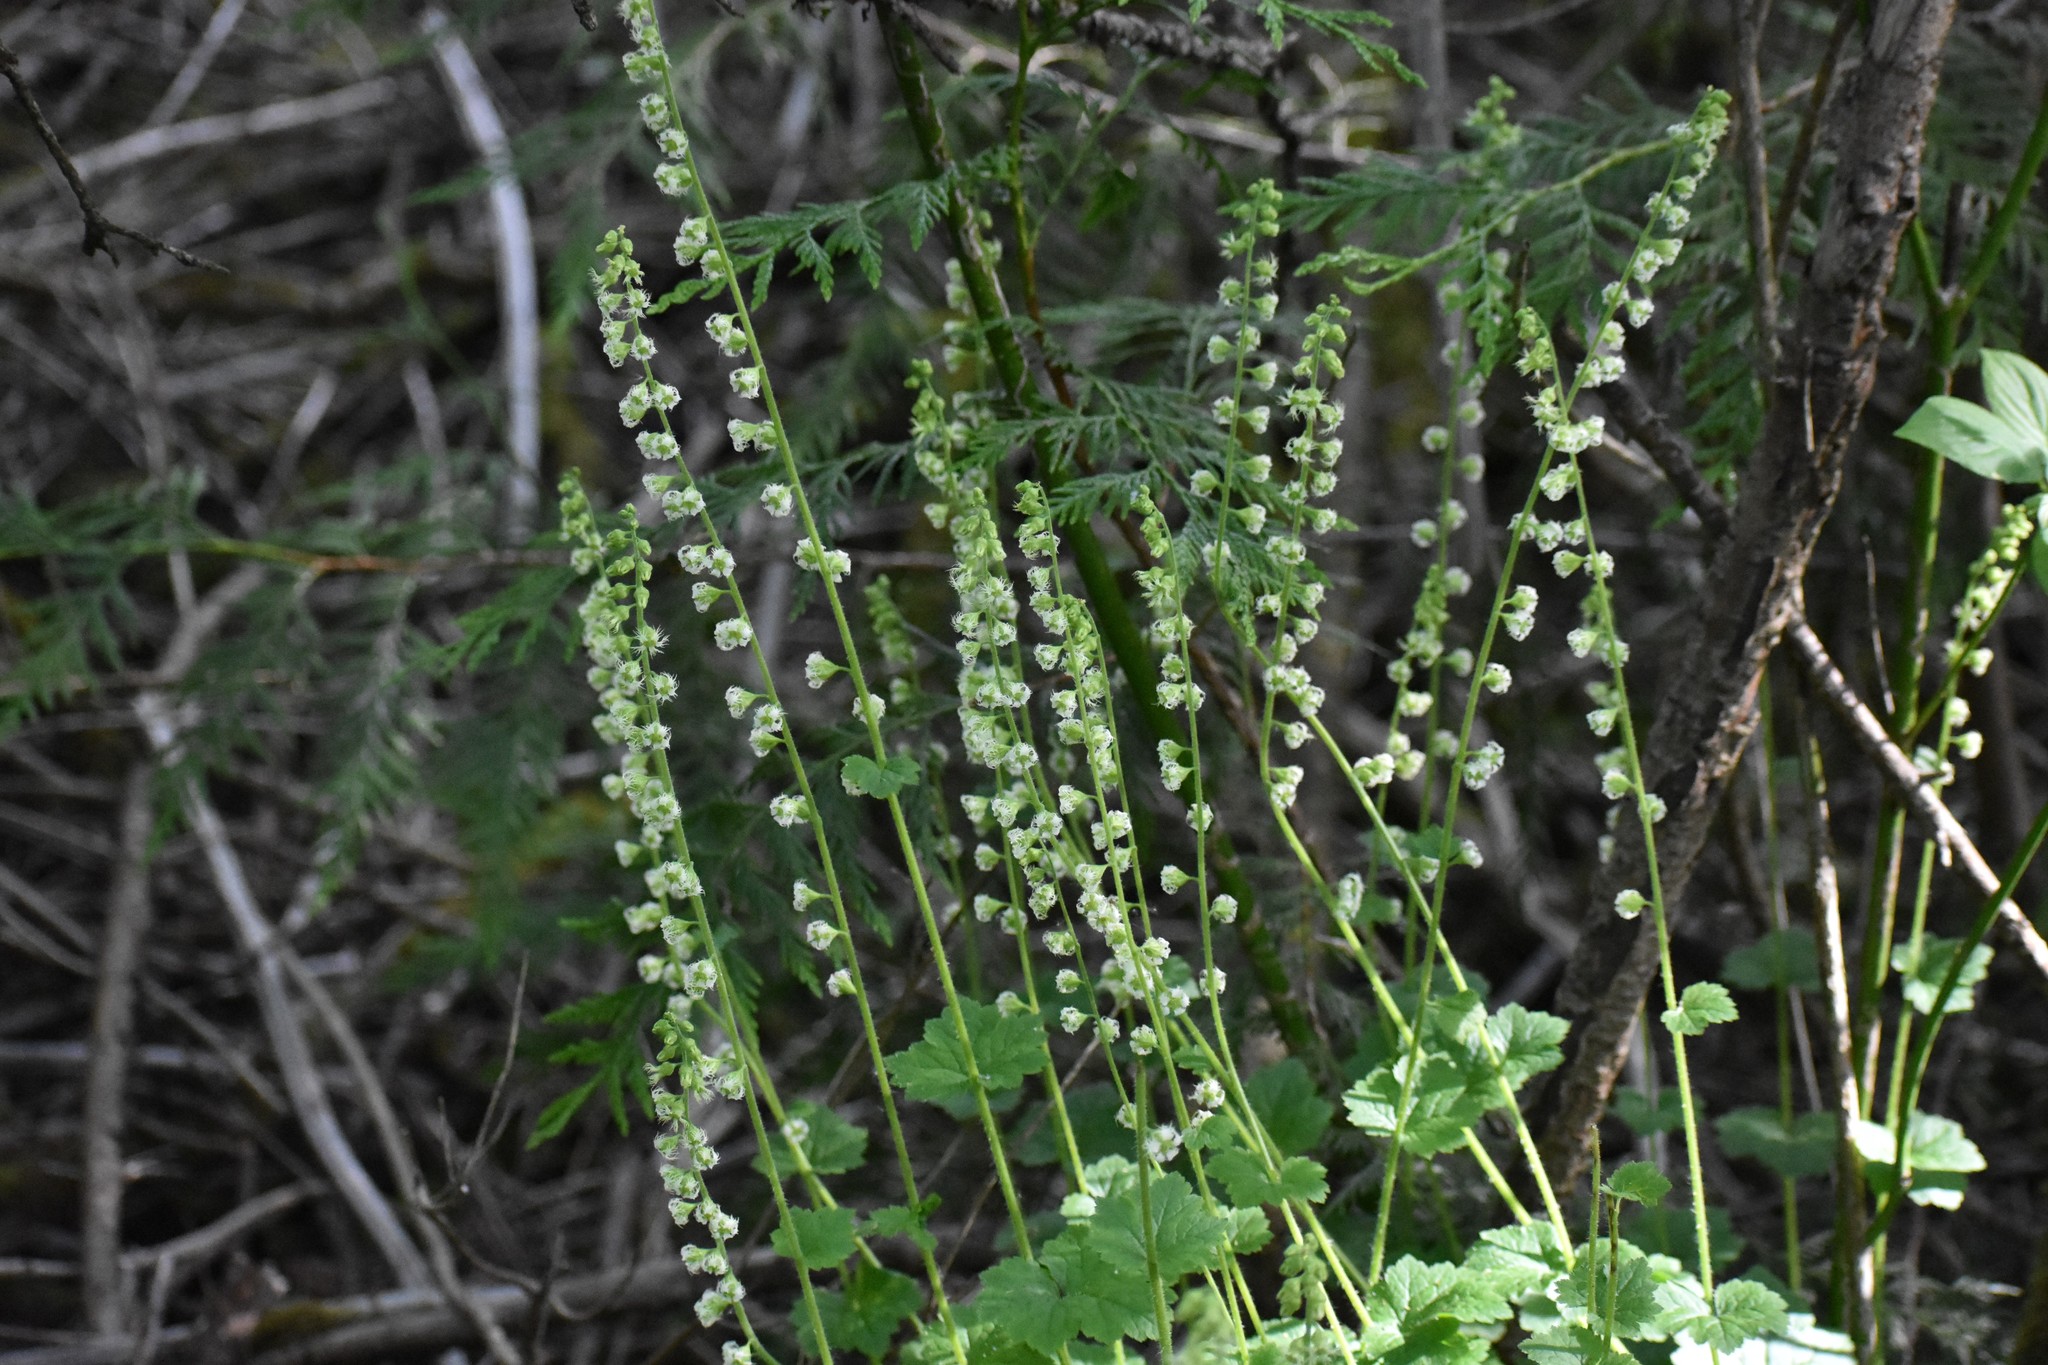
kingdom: Plantae
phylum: Tracheophyta
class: Magnoliopsida
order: Saxifragales
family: Saxifragaceae
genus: Tellima
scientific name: Tellima grandiflora
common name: Fringecups
